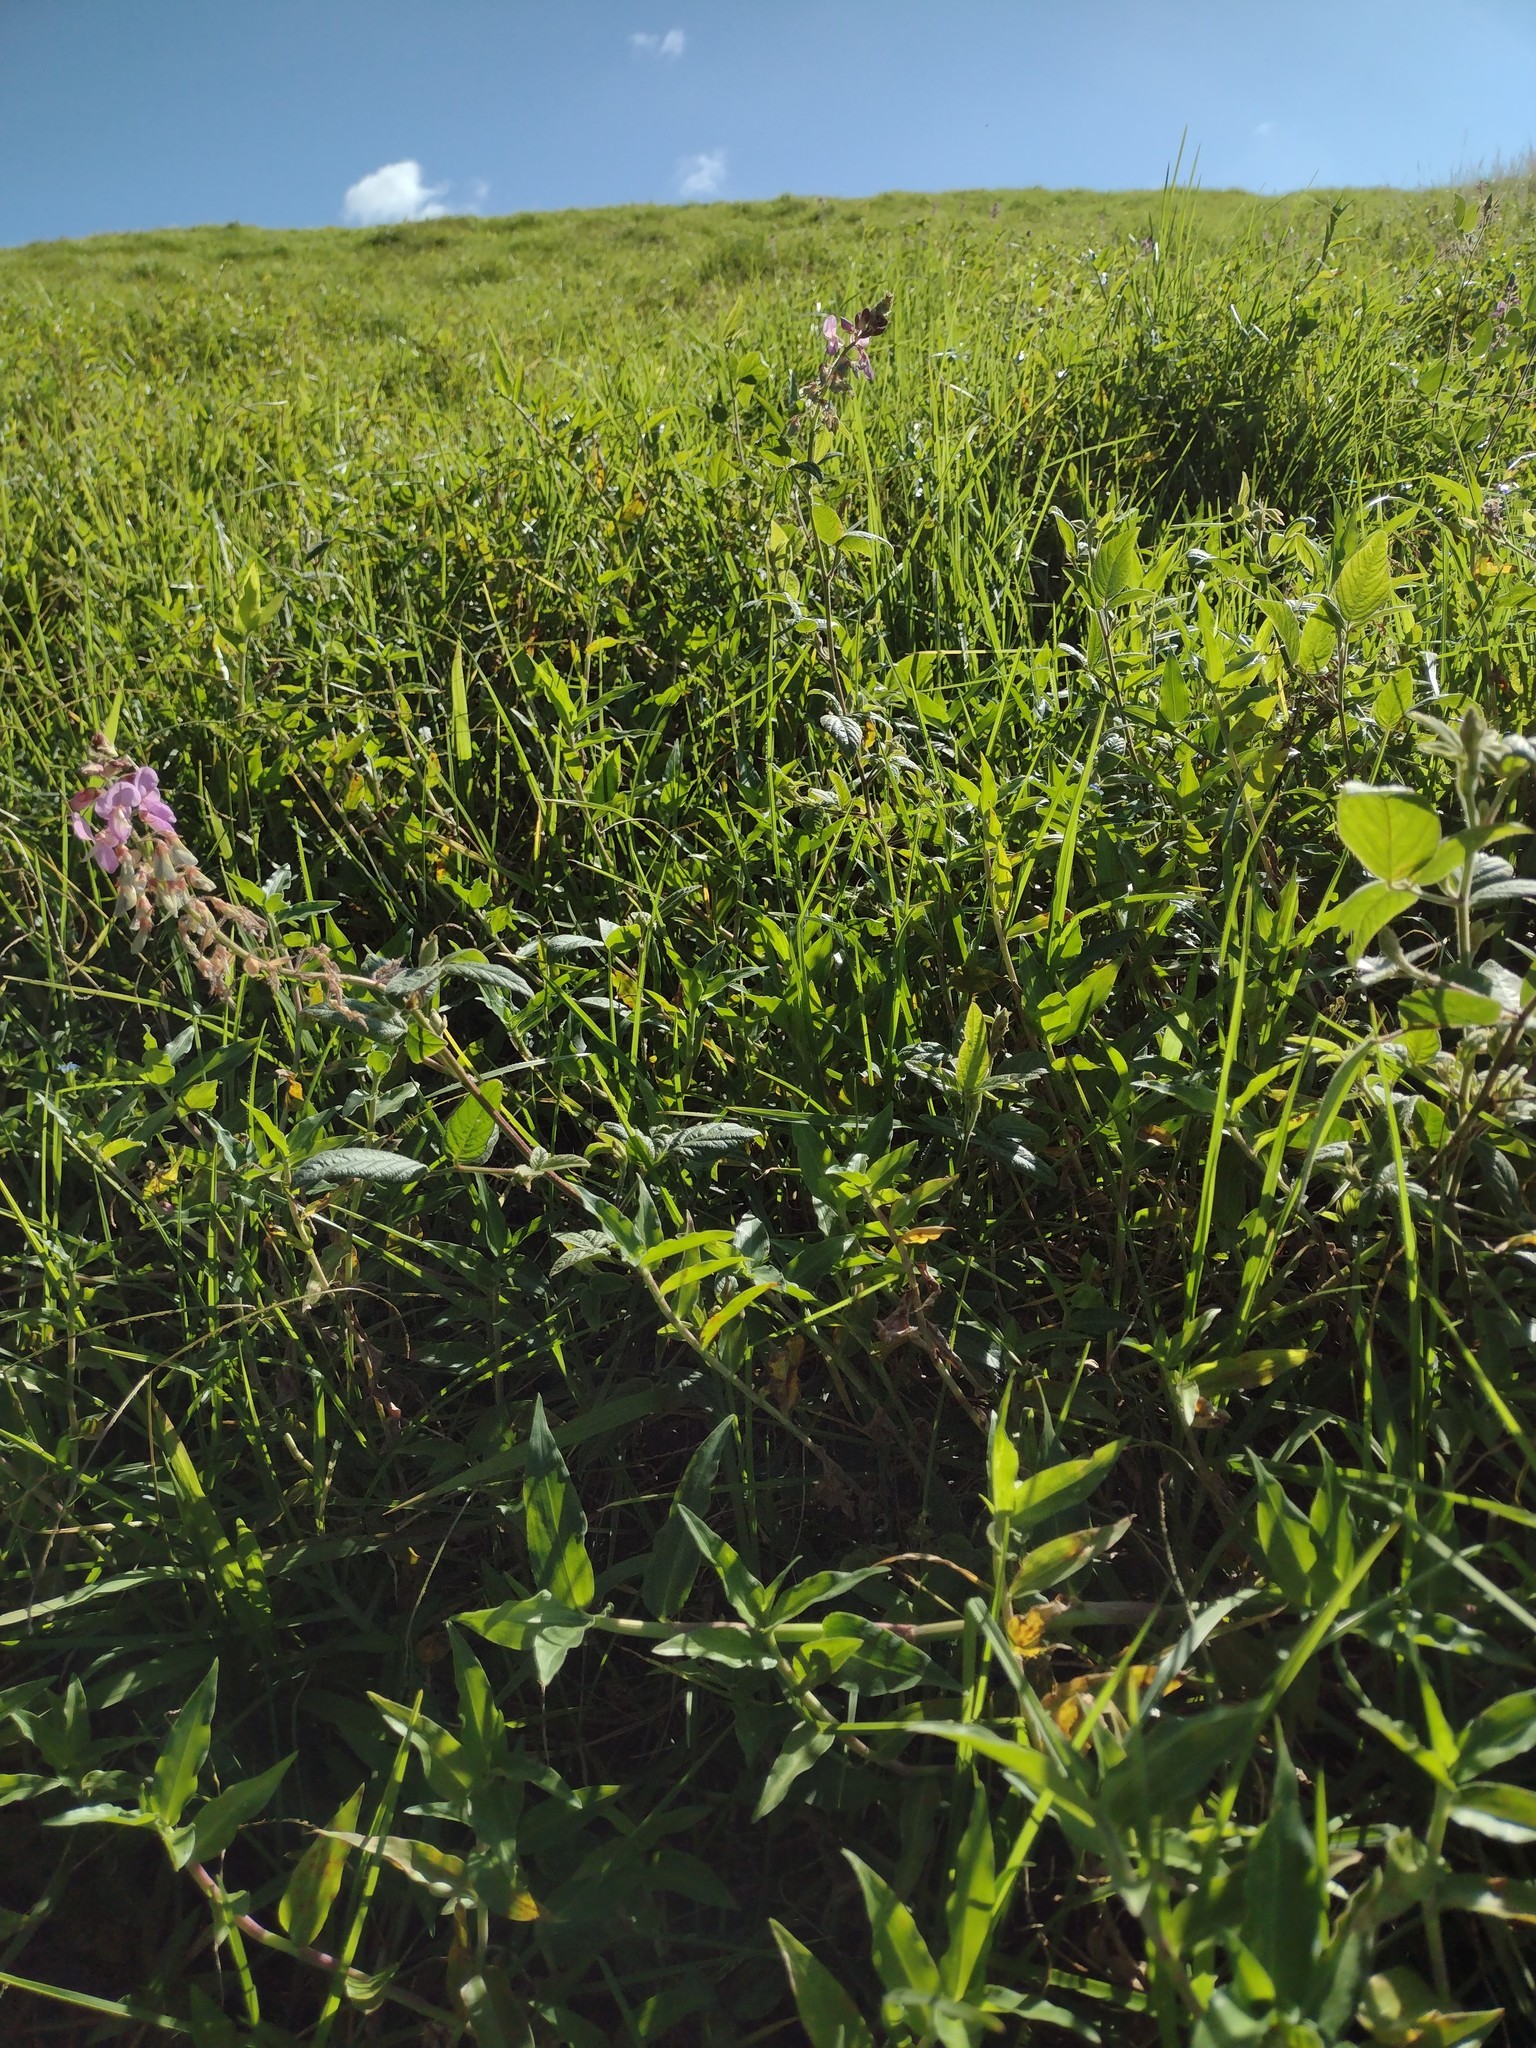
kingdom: Plantae
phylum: Tracheophyta
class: Liliopsida
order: Commelinales
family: Commelinaceae
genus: Commelina
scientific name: Commelina diffusa
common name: Climbing dayflower
